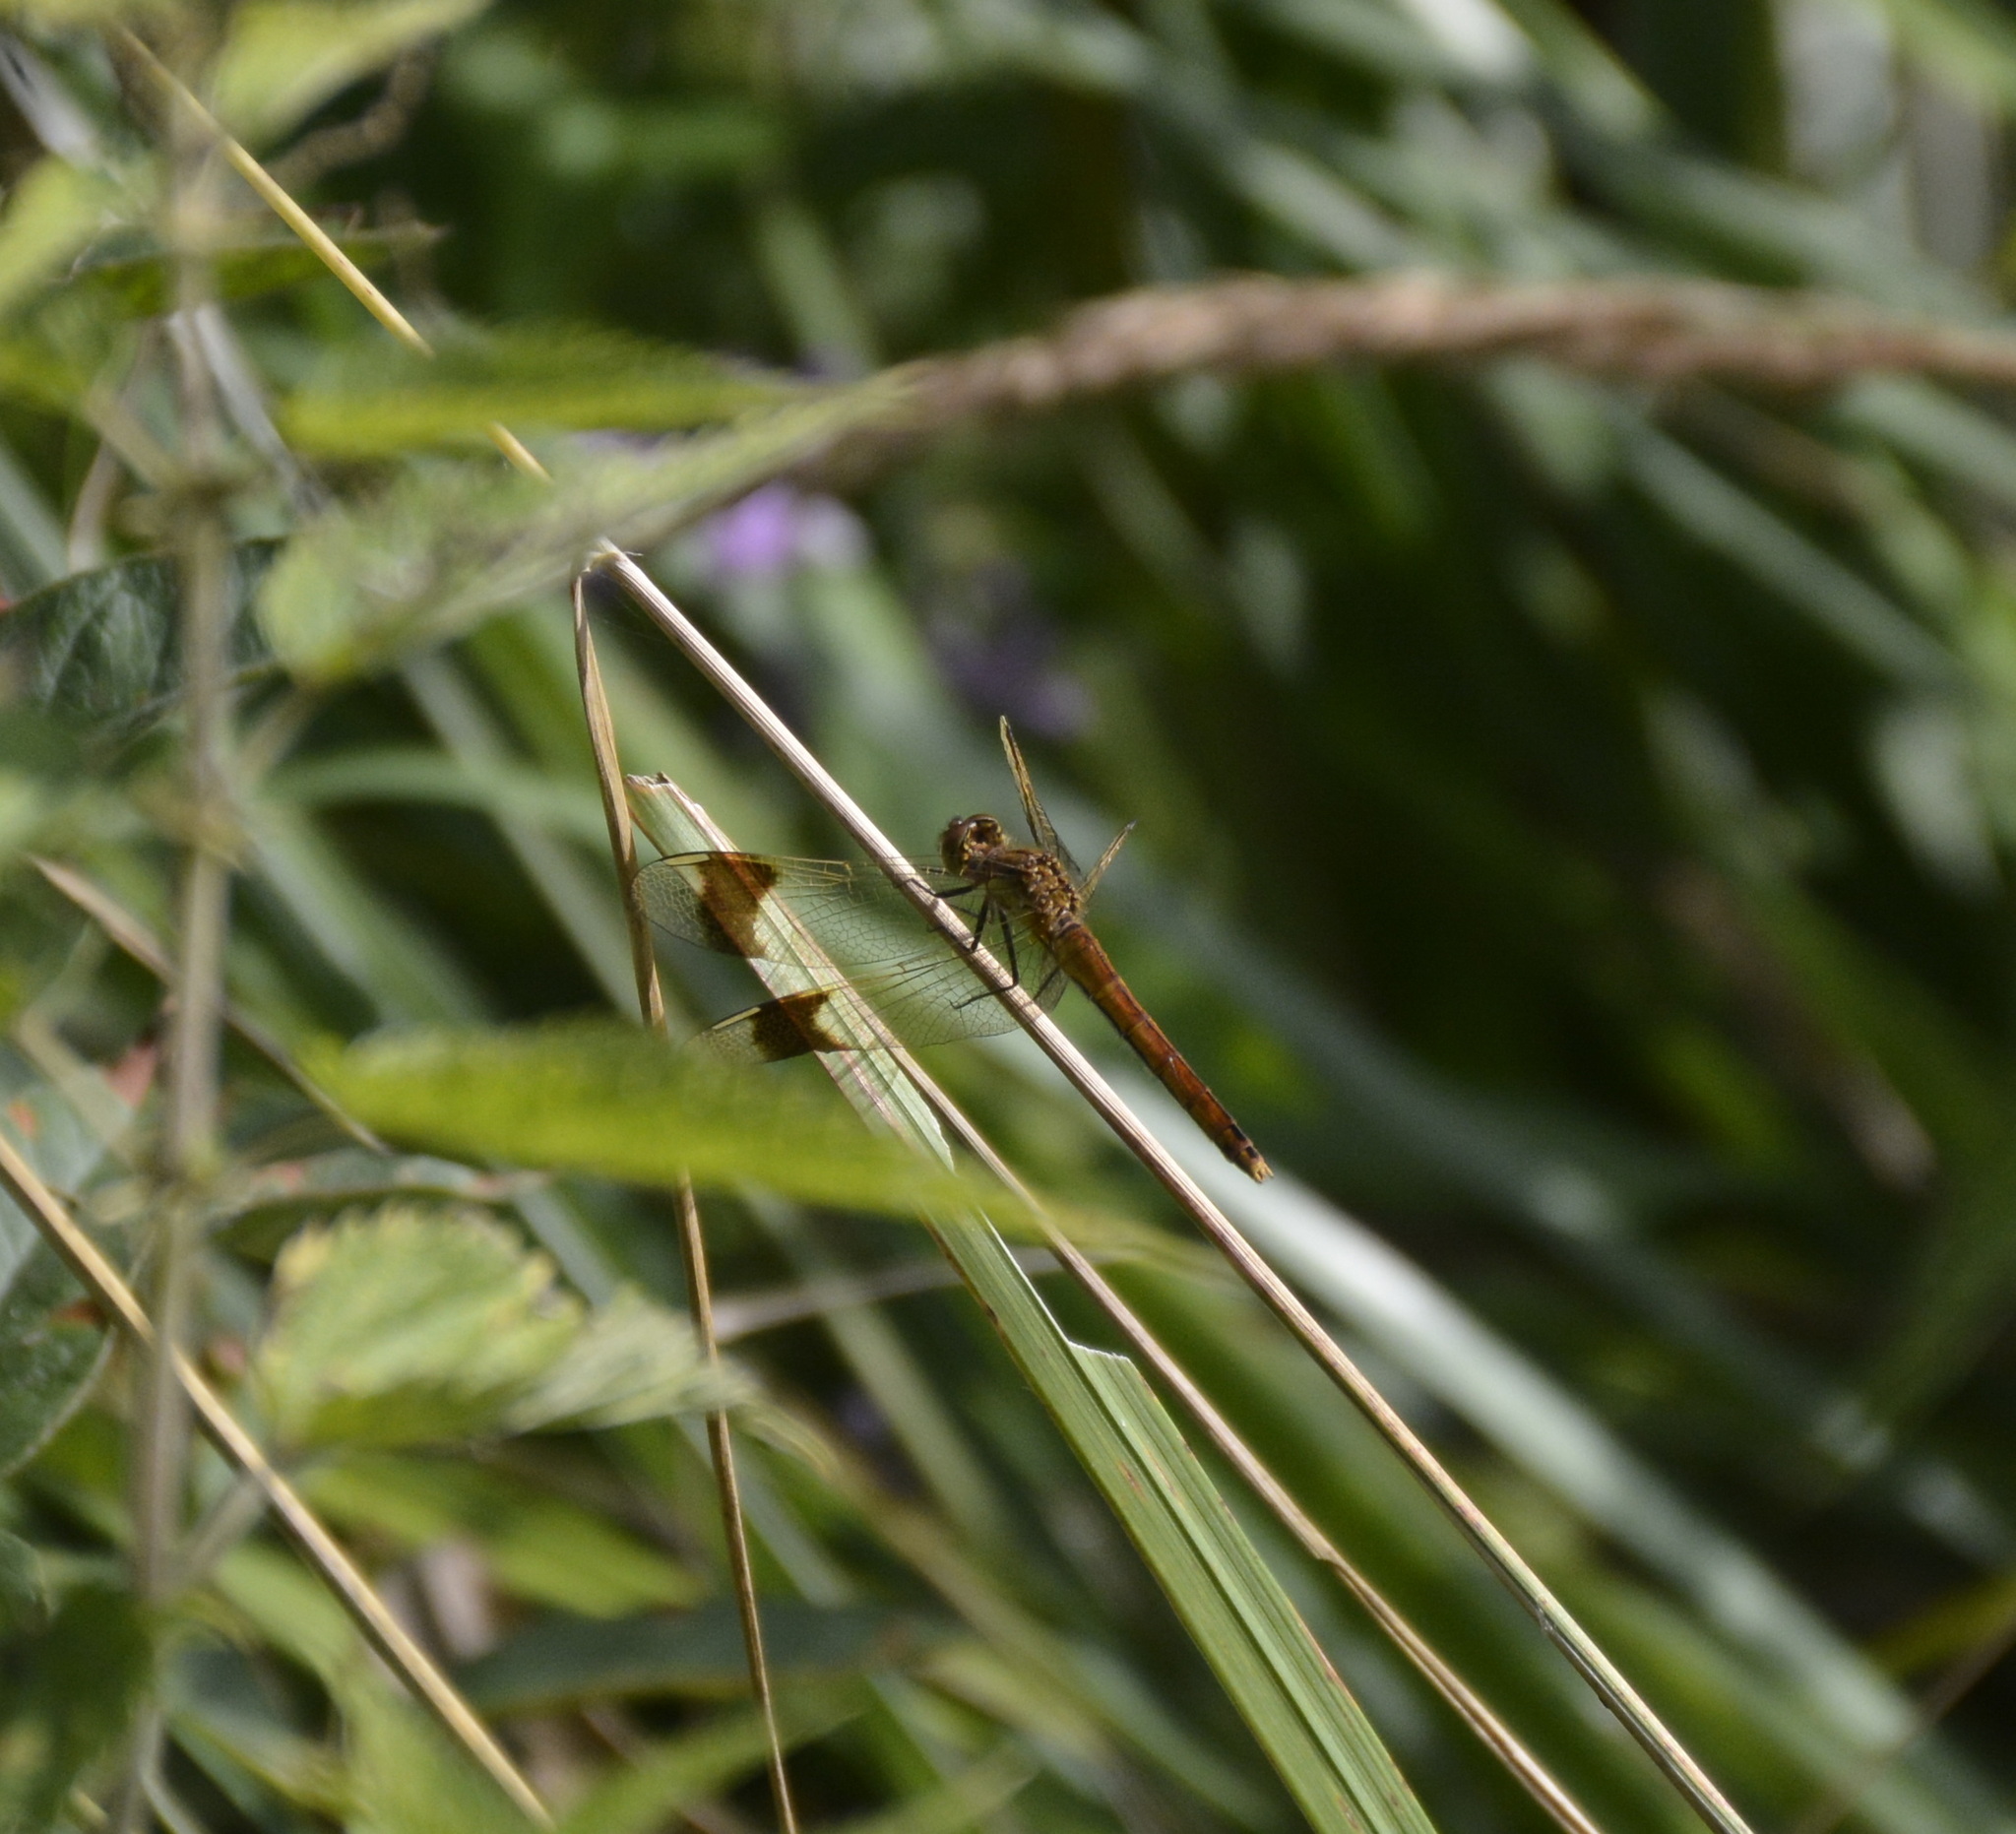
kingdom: Animalia
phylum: Arthropoda
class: Insecta
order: Odonata
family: Libellulidae
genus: Sympetrum
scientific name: Sympetrum pedemontanum
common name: Banded darter
